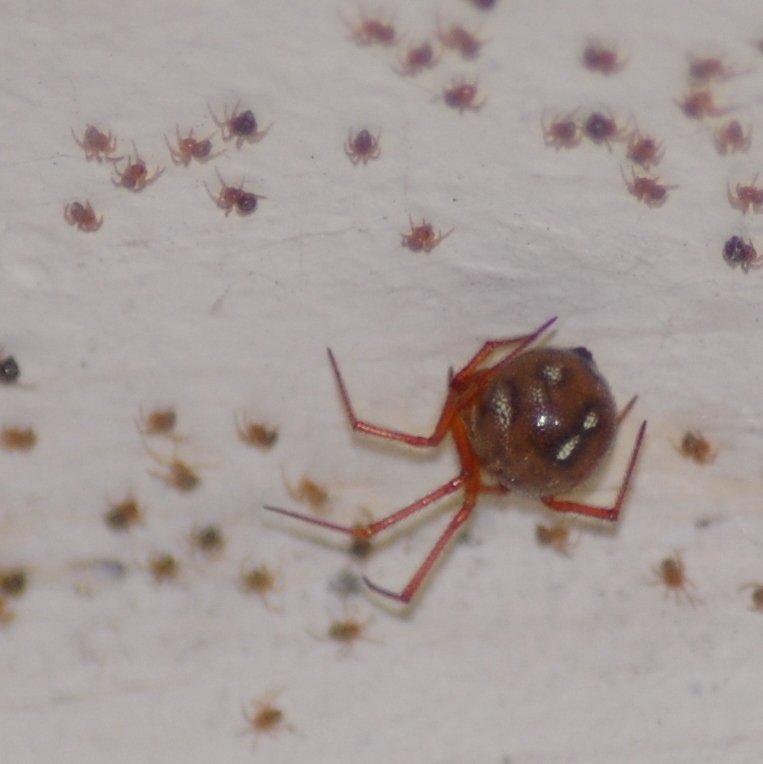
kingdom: Animalia
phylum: Arthropoda
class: Arachnida
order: Araneae
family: Theridiidae
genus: Nesticodes
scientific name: Nesticodes rufipes
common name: Cobweb spiders
